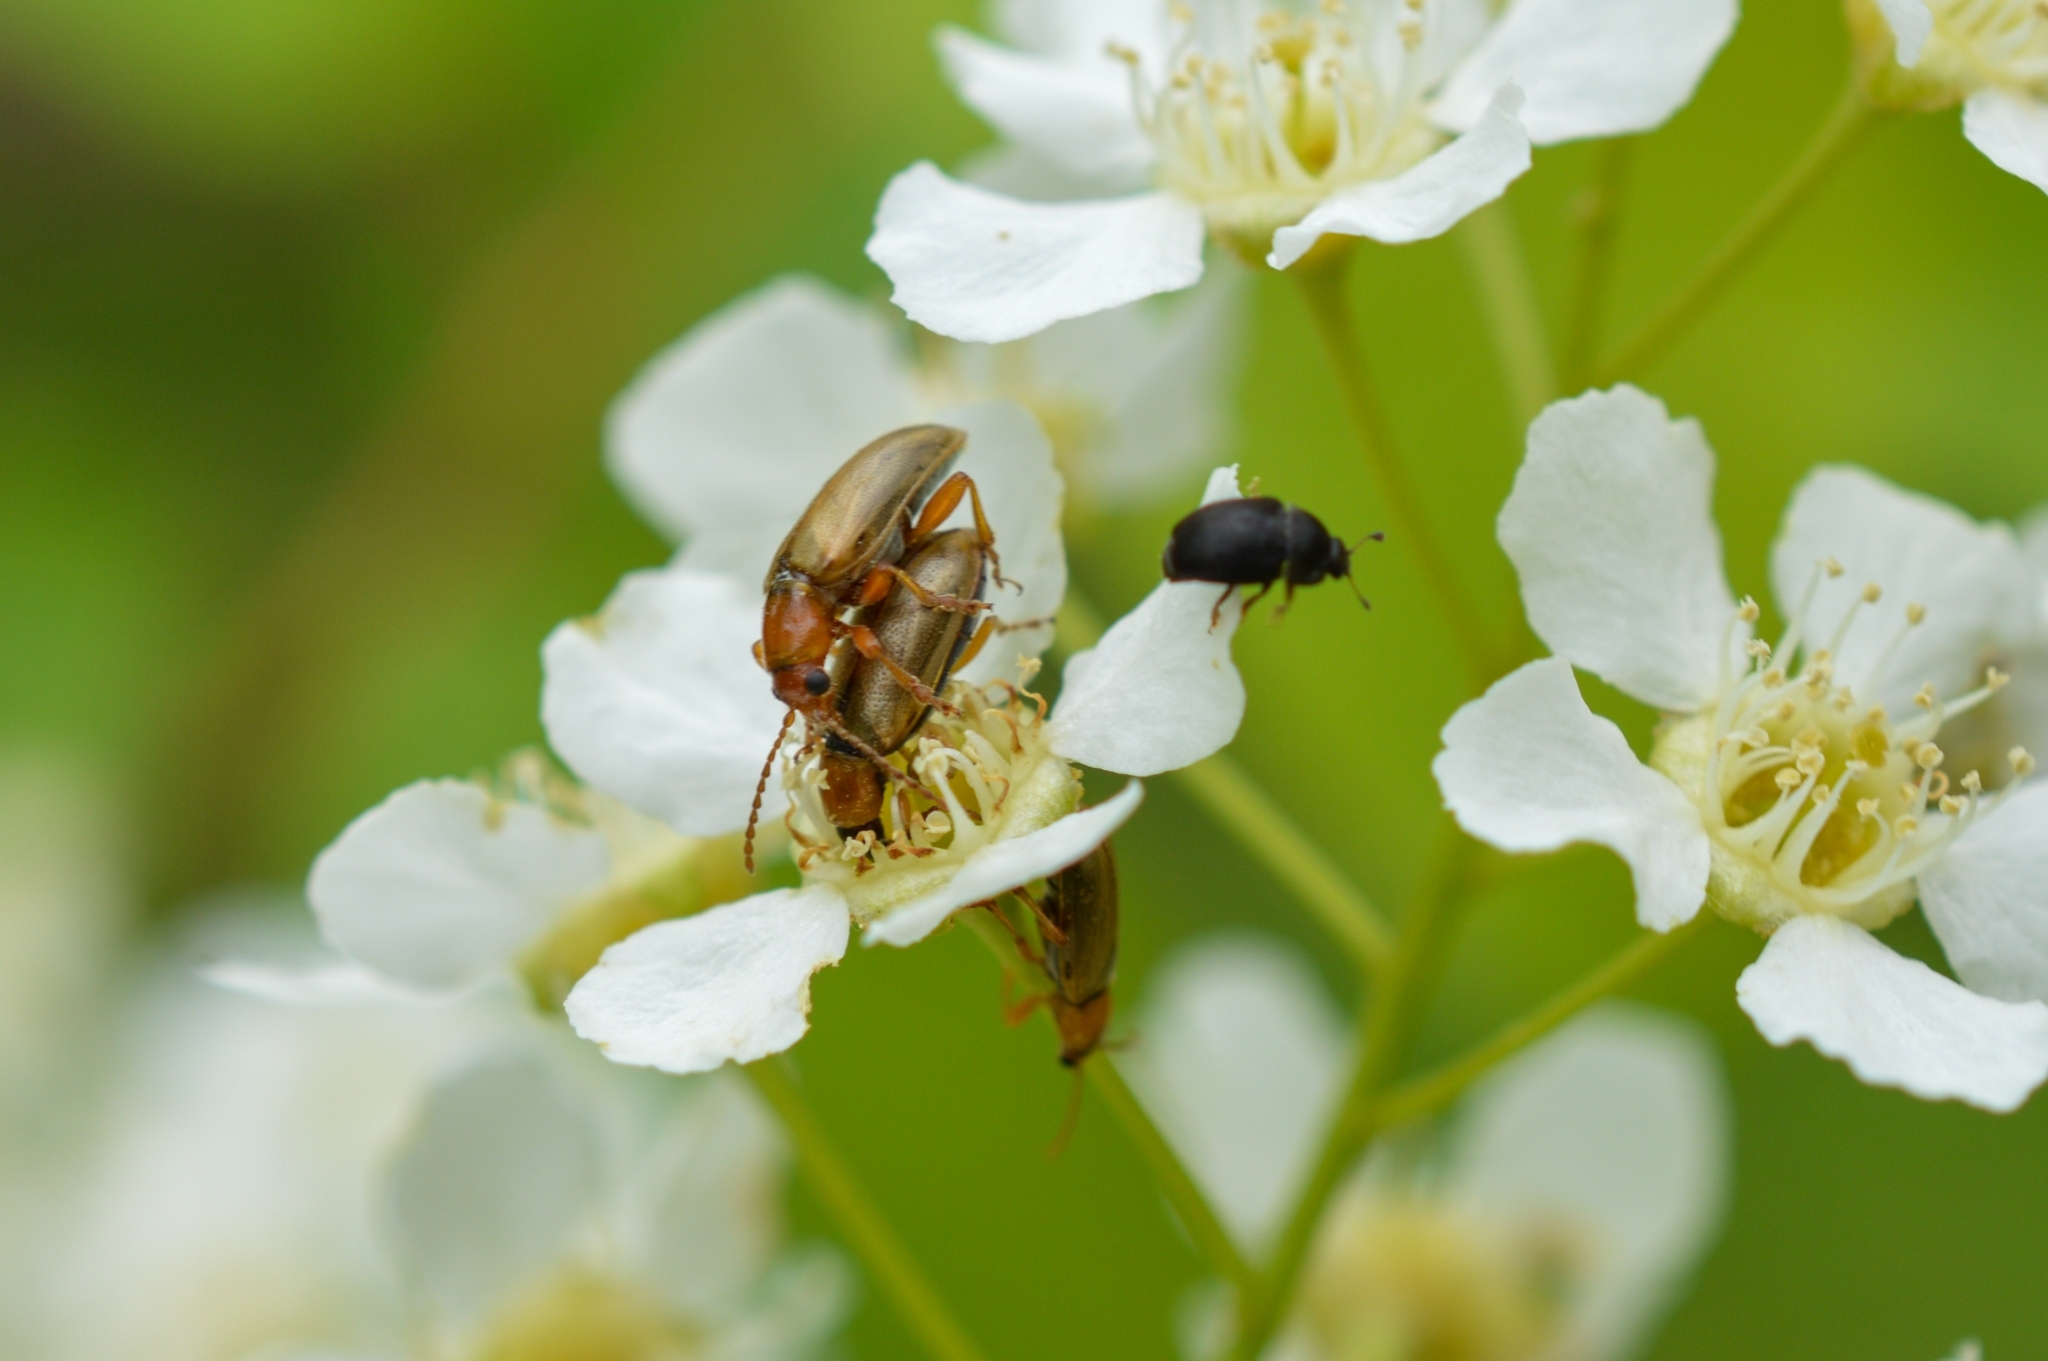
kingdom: Animalia
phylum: Arthropoda
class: Insecta
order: Coleoptera
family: Orsodacnidae
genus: Orsodacne
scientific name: Orsodacne cerasi
